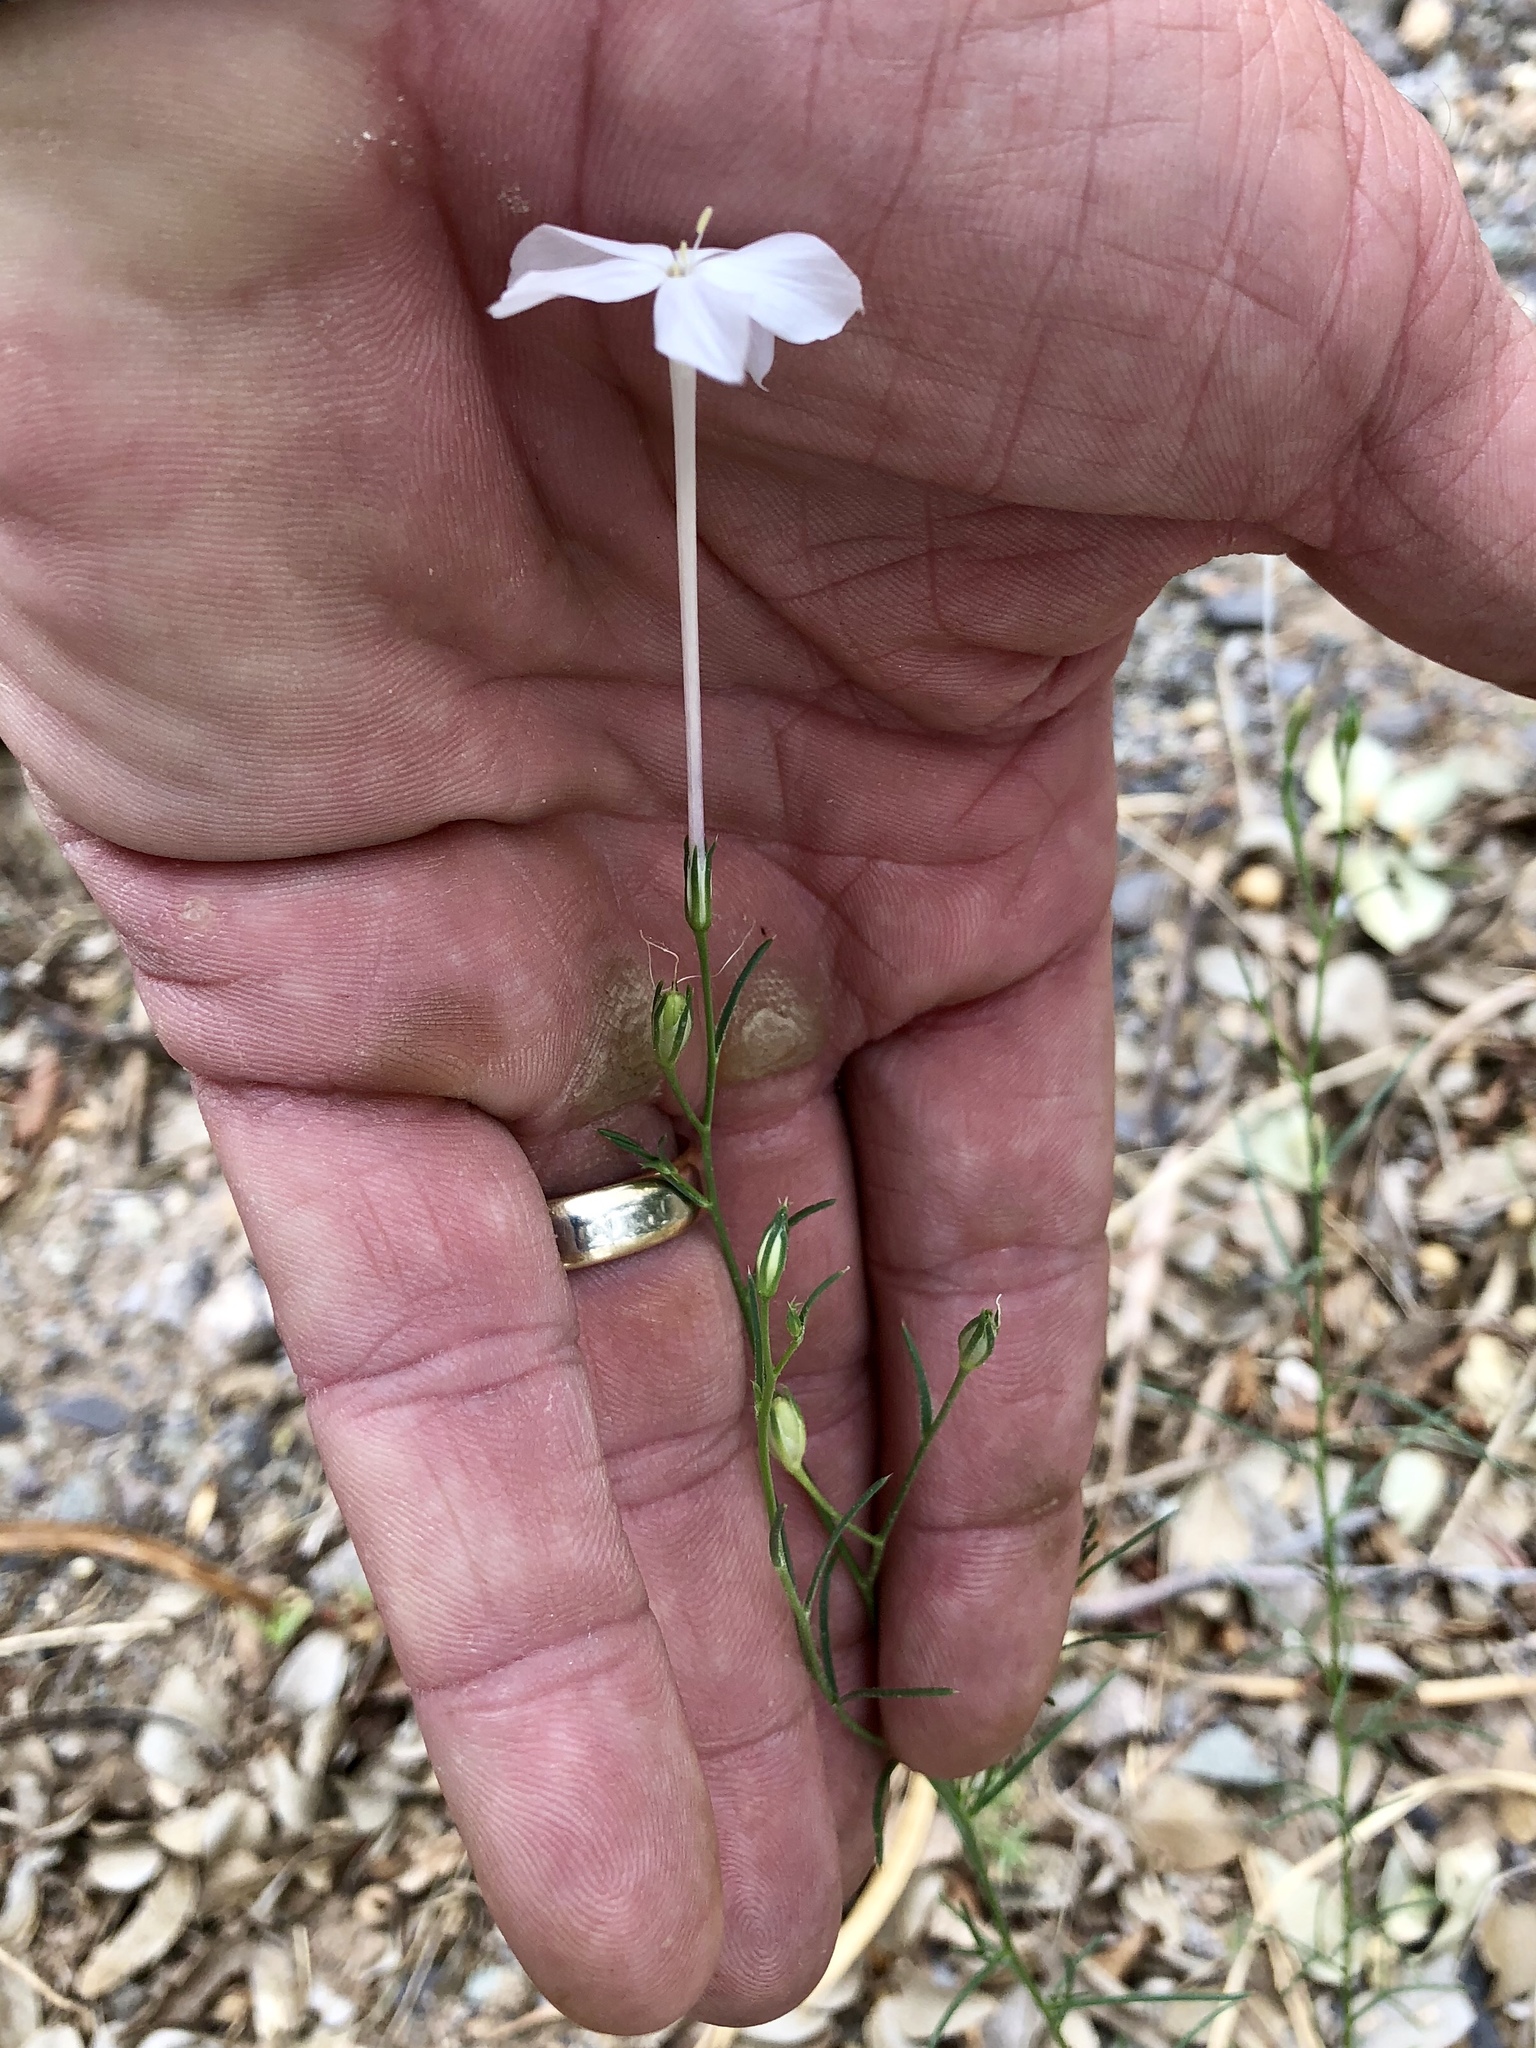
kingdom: Plantae
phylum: Tracheophyta
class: Magnoliopsida
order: Ericales
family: Polemoniaceae
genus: Ipomopsis
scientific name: Ipomopsis longiflora
